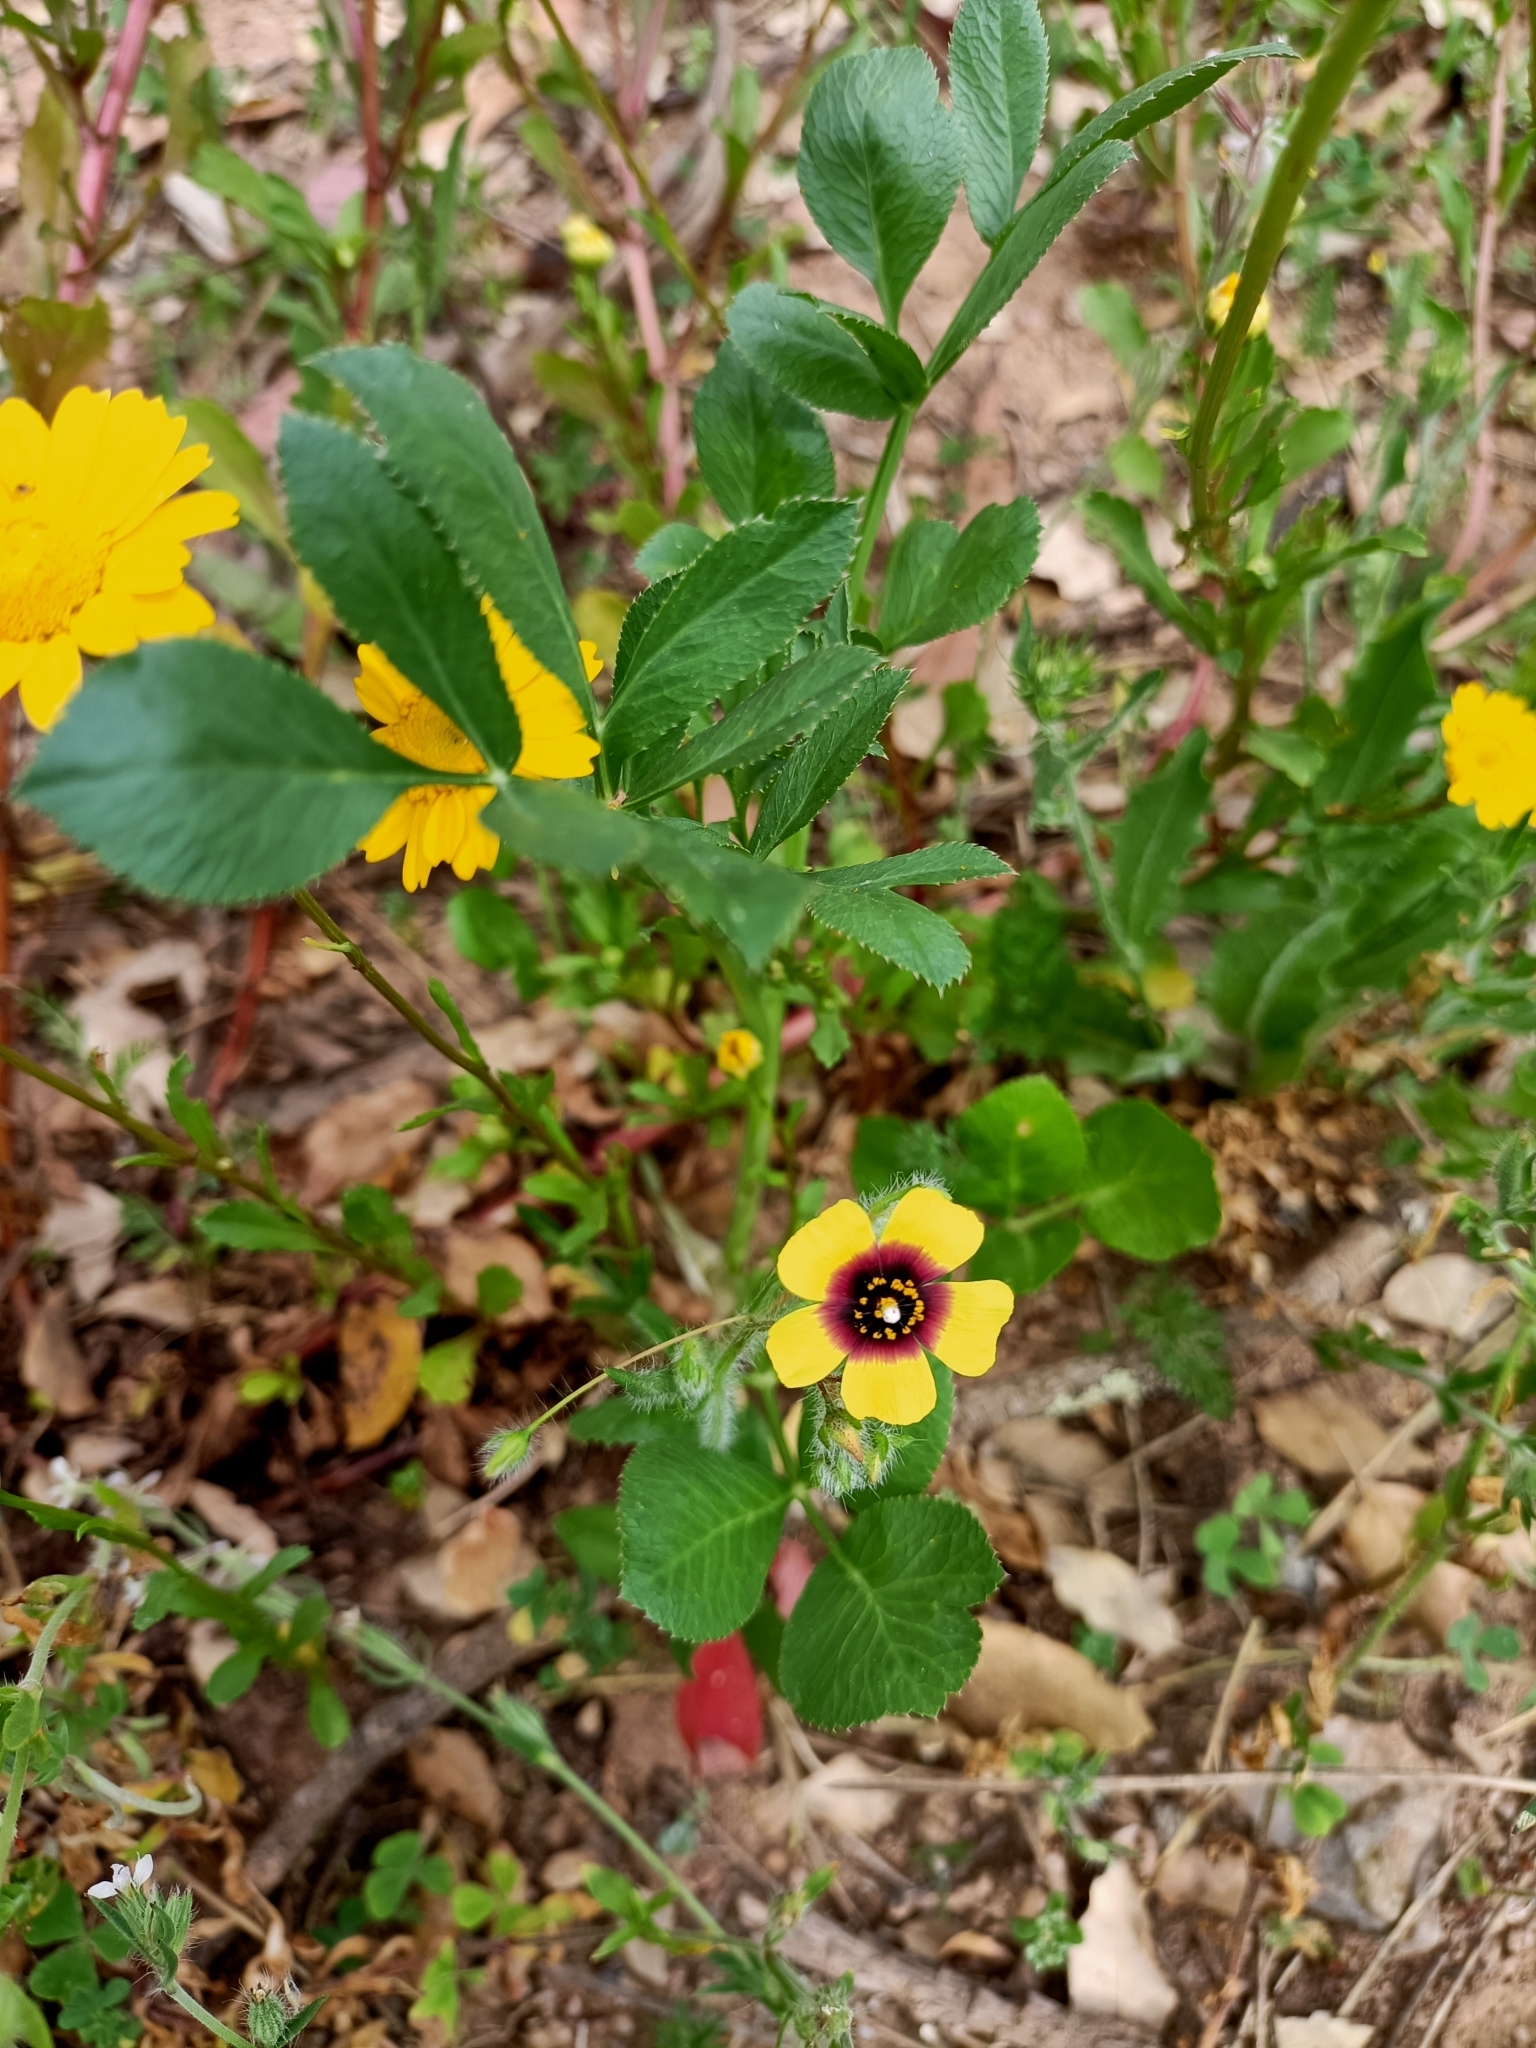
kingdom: Plantae
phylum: Tracheophyta
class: Magnoliopsida
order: Malvales
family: Cistaceae
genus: Tuberaria
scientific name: Tuberaria guttata
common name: Spotted rock-rose
